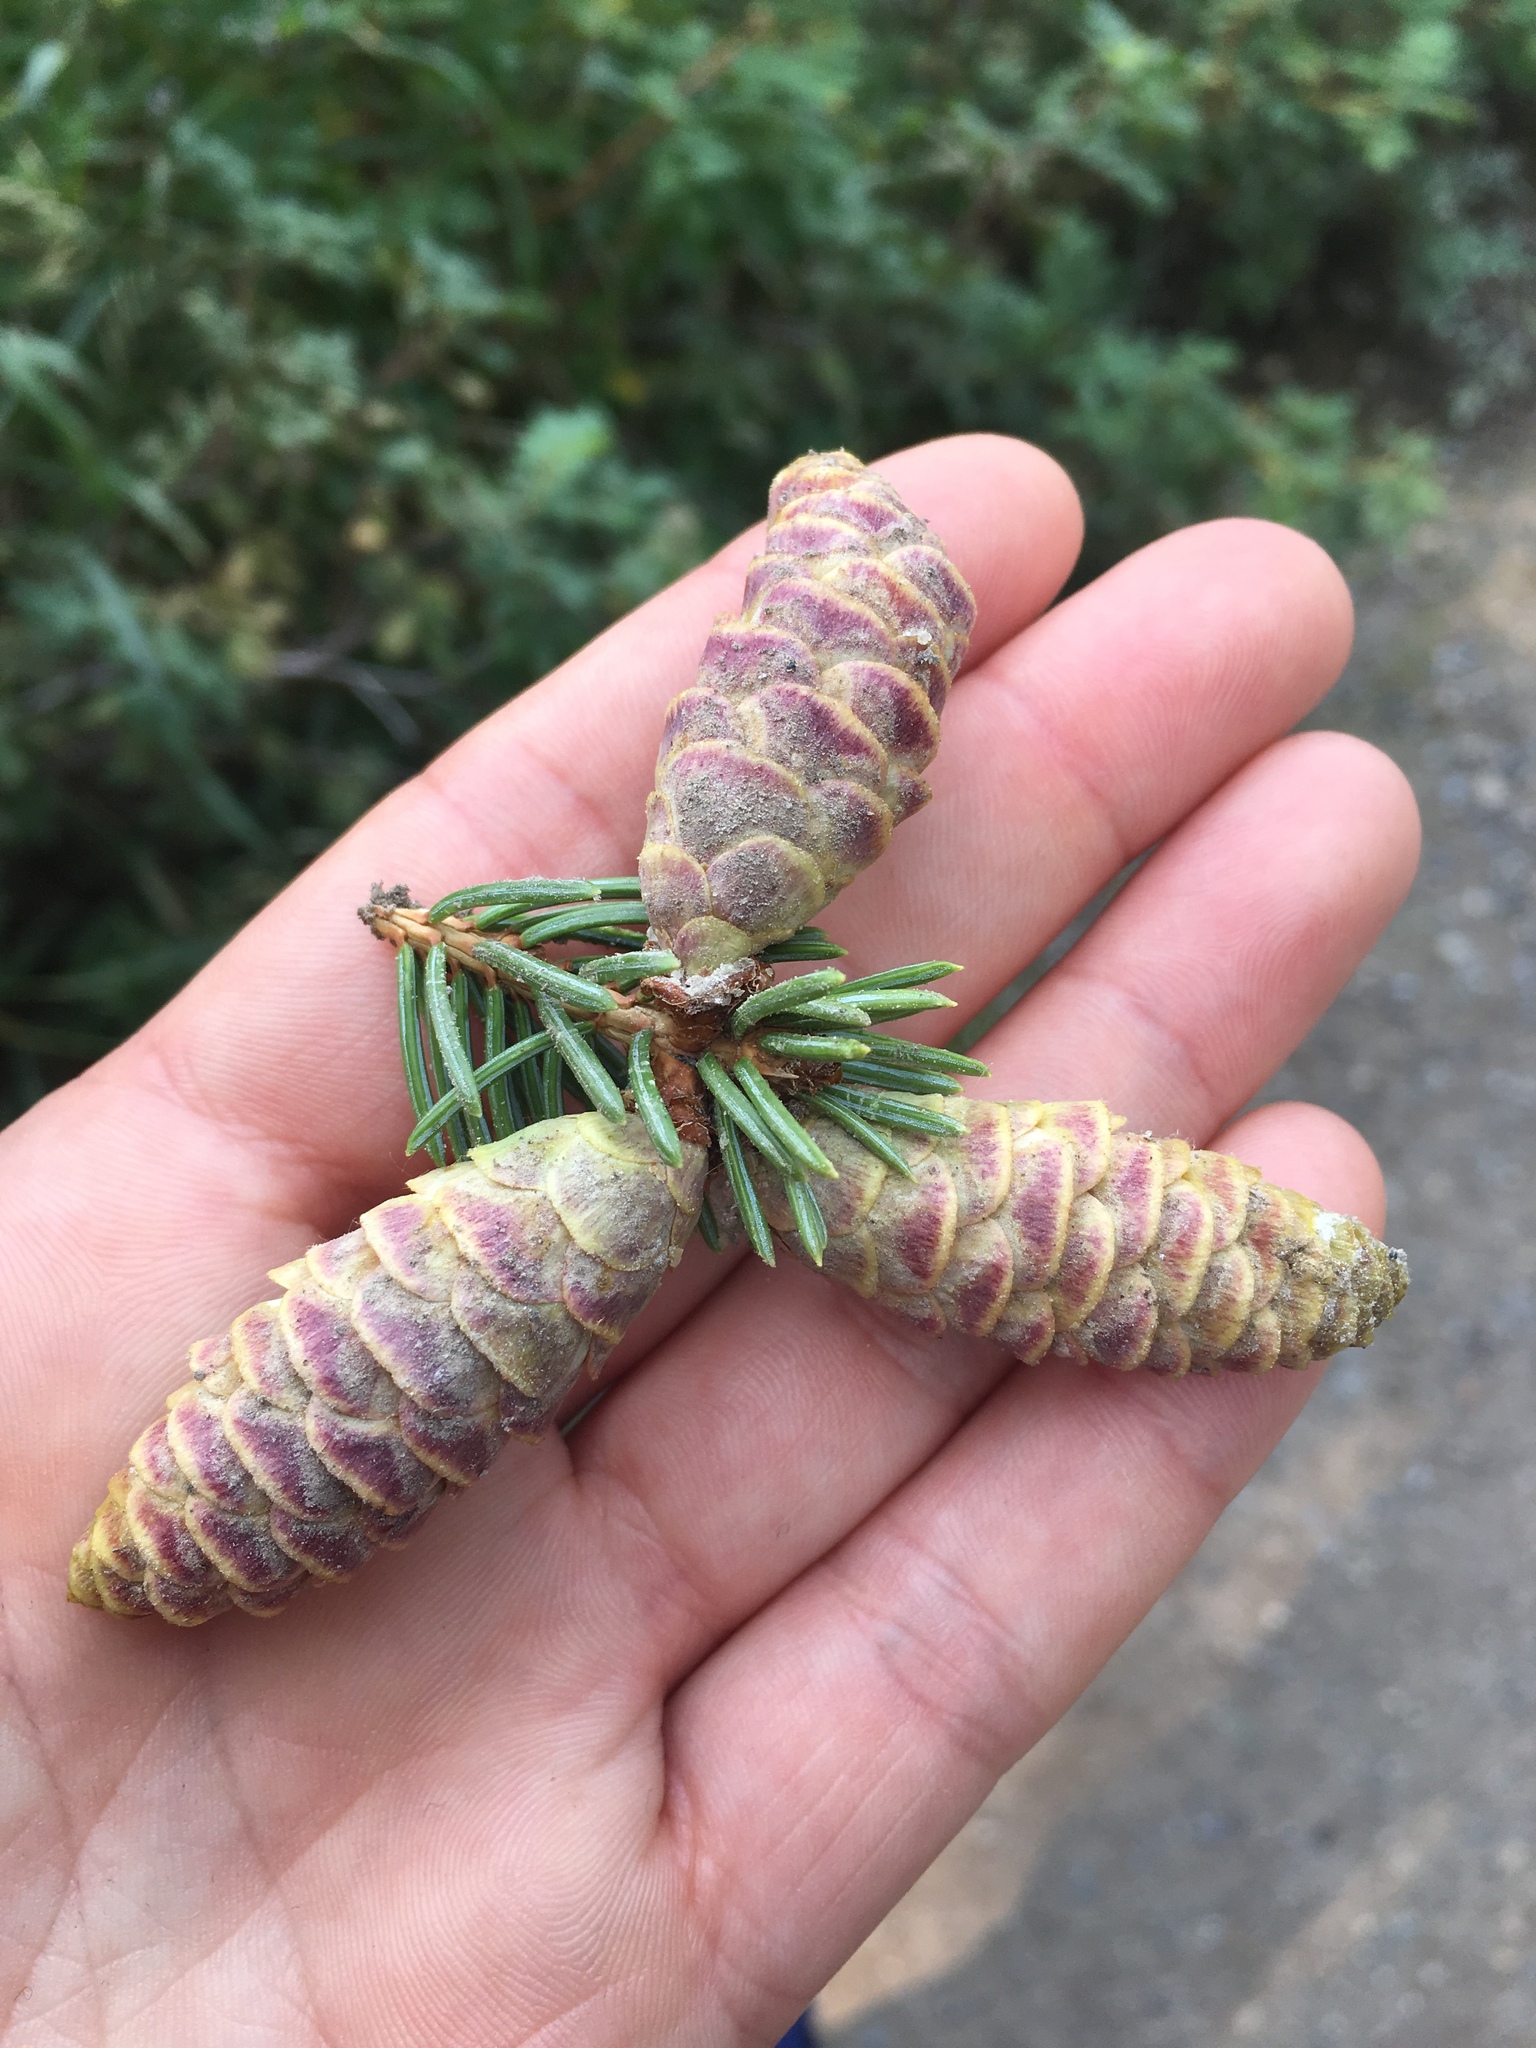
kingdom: Plantae
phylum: Tracheophyta
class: Pinopsida
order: Pinales
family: Pinaceae
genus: Picea
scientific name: Picea glauca
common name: White spruce
